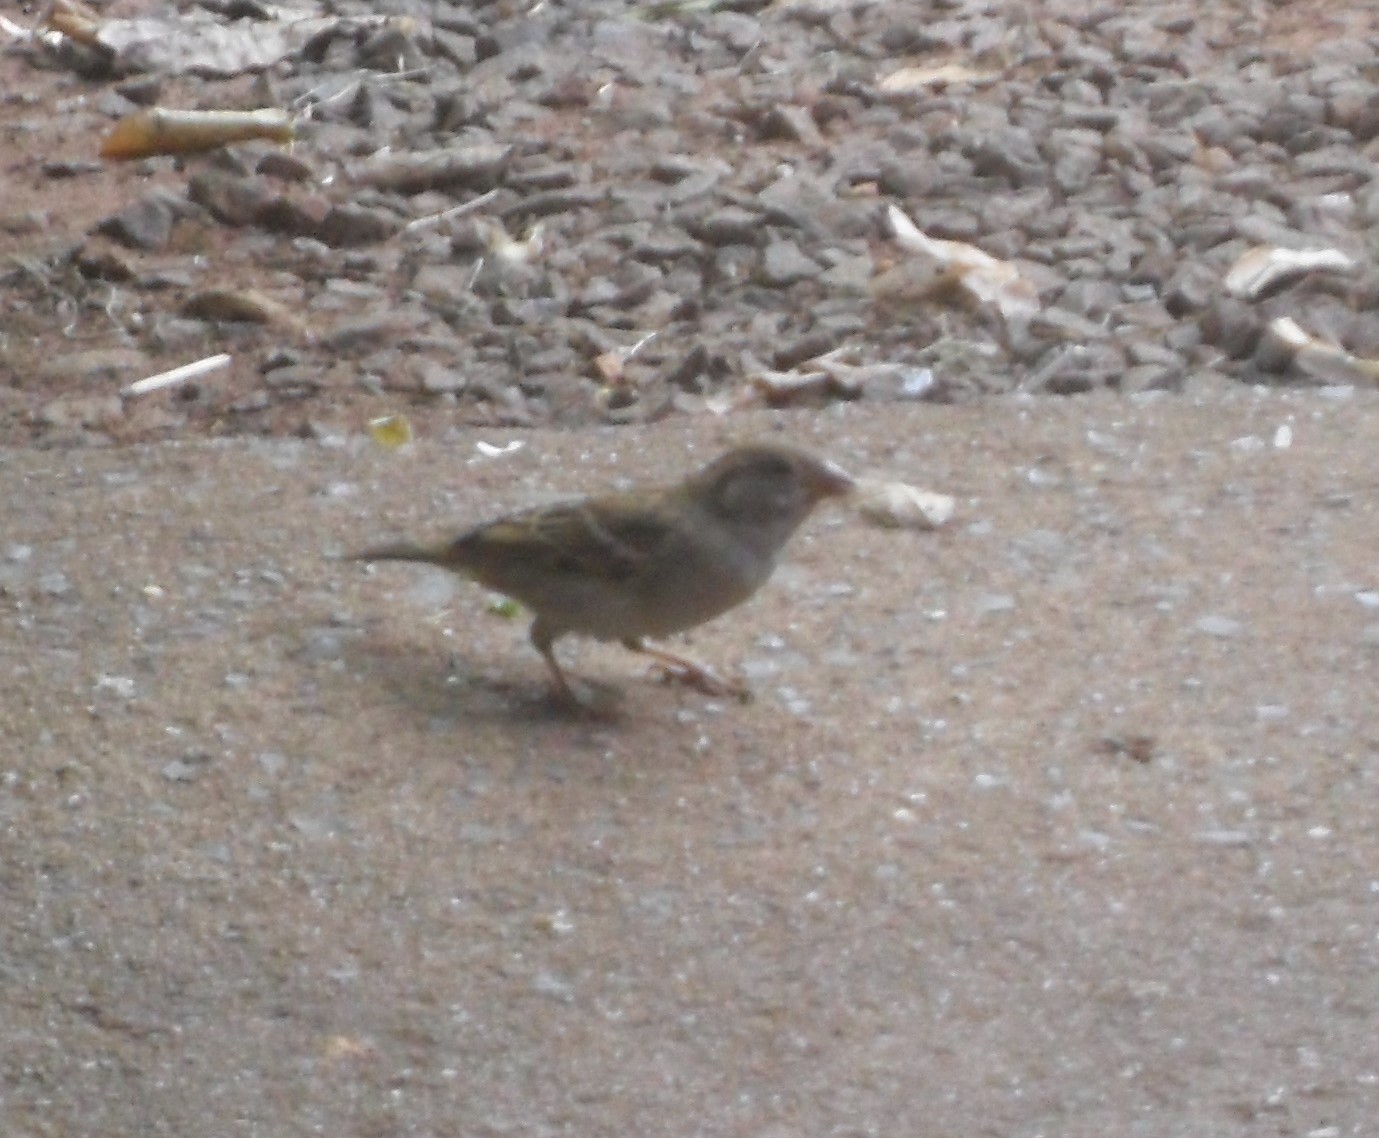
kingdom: Animalia
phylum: Chordata
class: Aves
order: Passeriformes
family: Passeridae
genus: Passer
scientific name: Passer domesticus
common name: House sparrow
